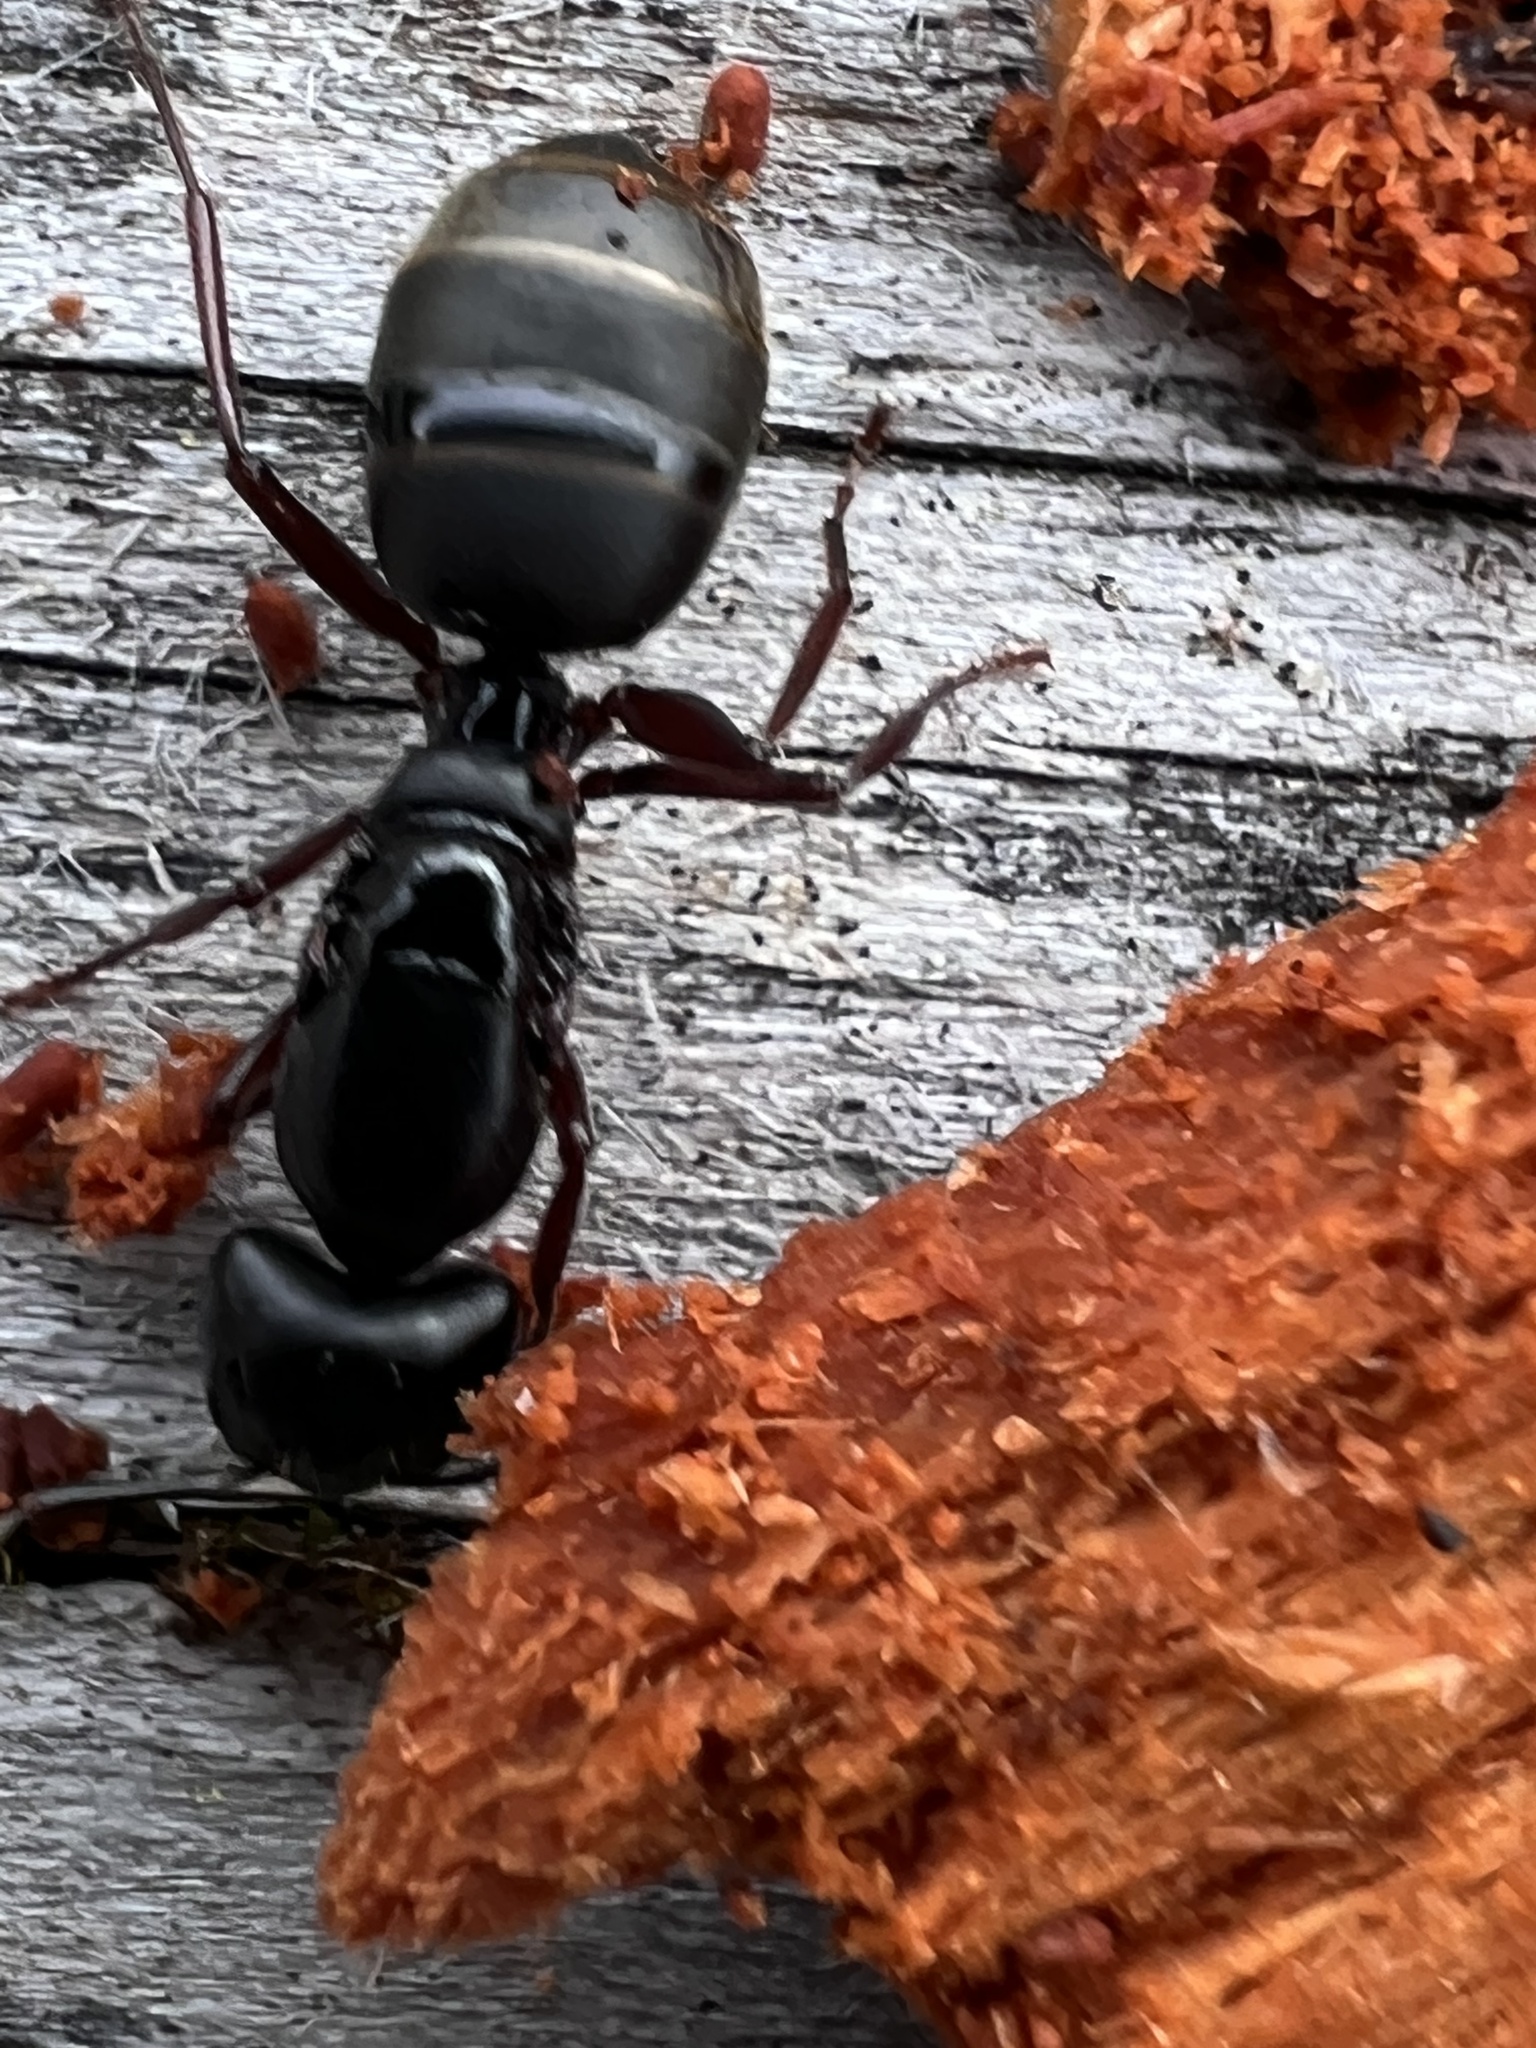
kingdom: Animalia
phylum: Arthropoda
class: Insecta
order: Hymenoptera
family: Formicidae
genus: Camponotus
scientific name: Camponotus modoc
